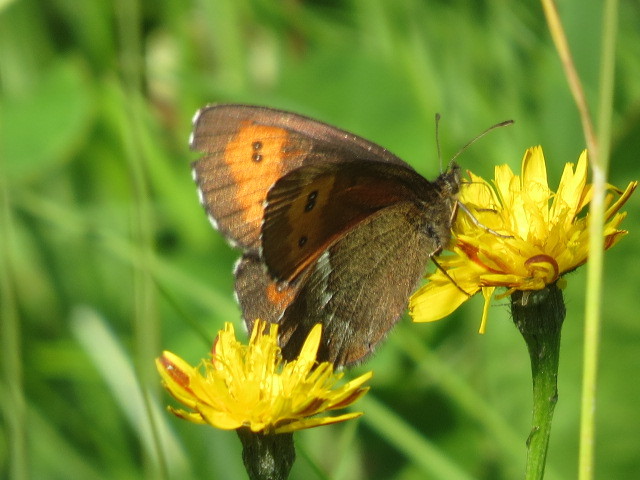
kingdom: Animalia
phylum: Arthropoda
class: Insecta
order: Lepidoptera
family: Nymphalidae
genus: Erebia
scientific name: Erebia euryale
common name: Large ringlet
